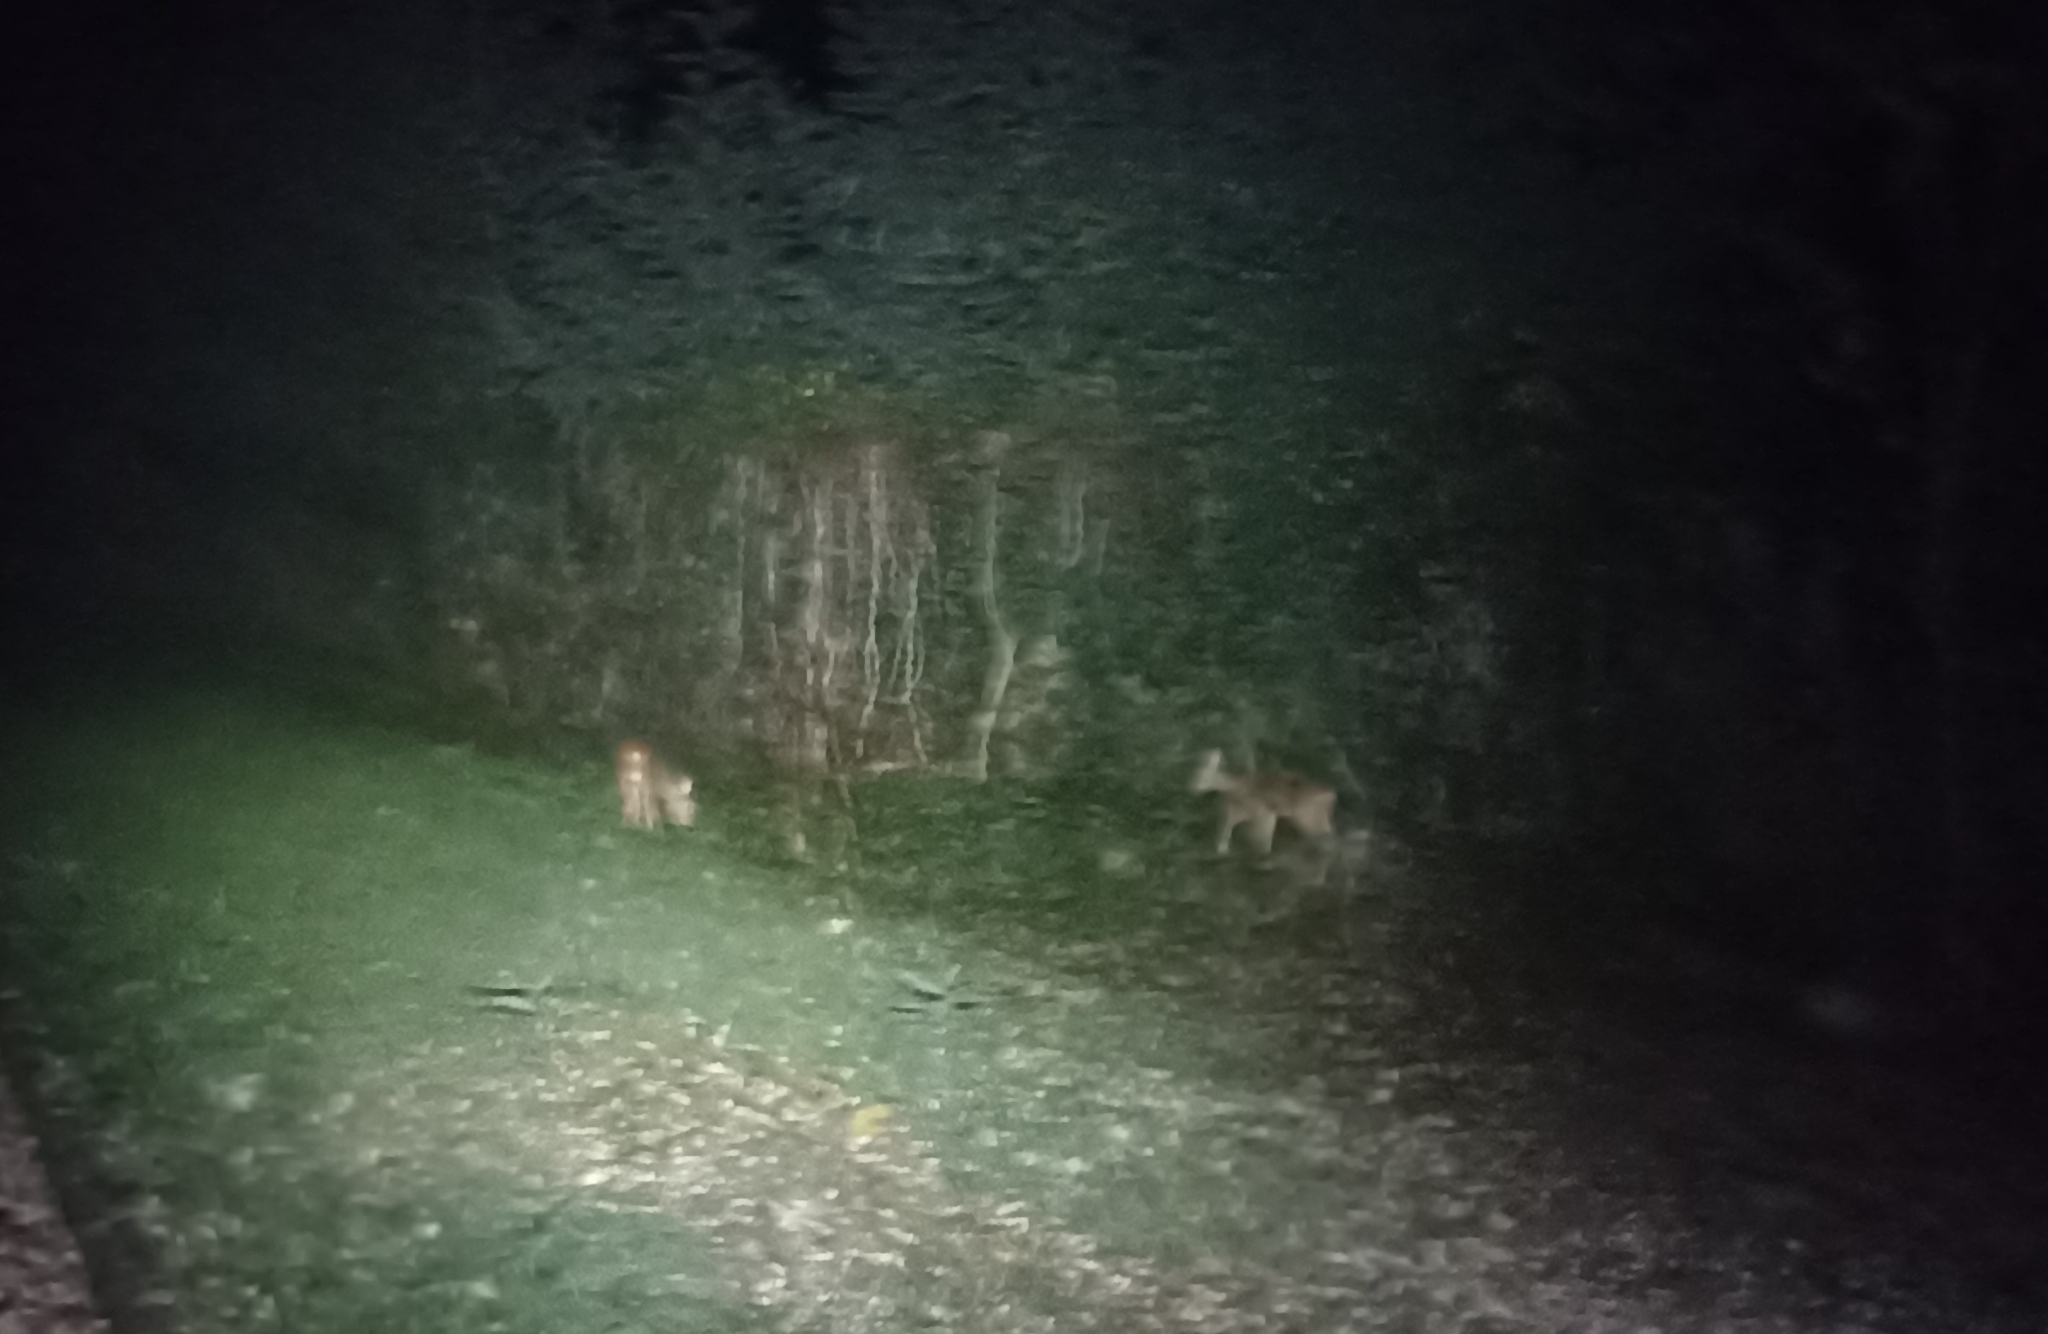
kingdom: Animalia
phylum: Chordata
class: Mammalia
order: Artiodactyla
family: Cervidae
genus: Capreolus
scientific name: Capreolus capreolus
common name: Western roe deer
